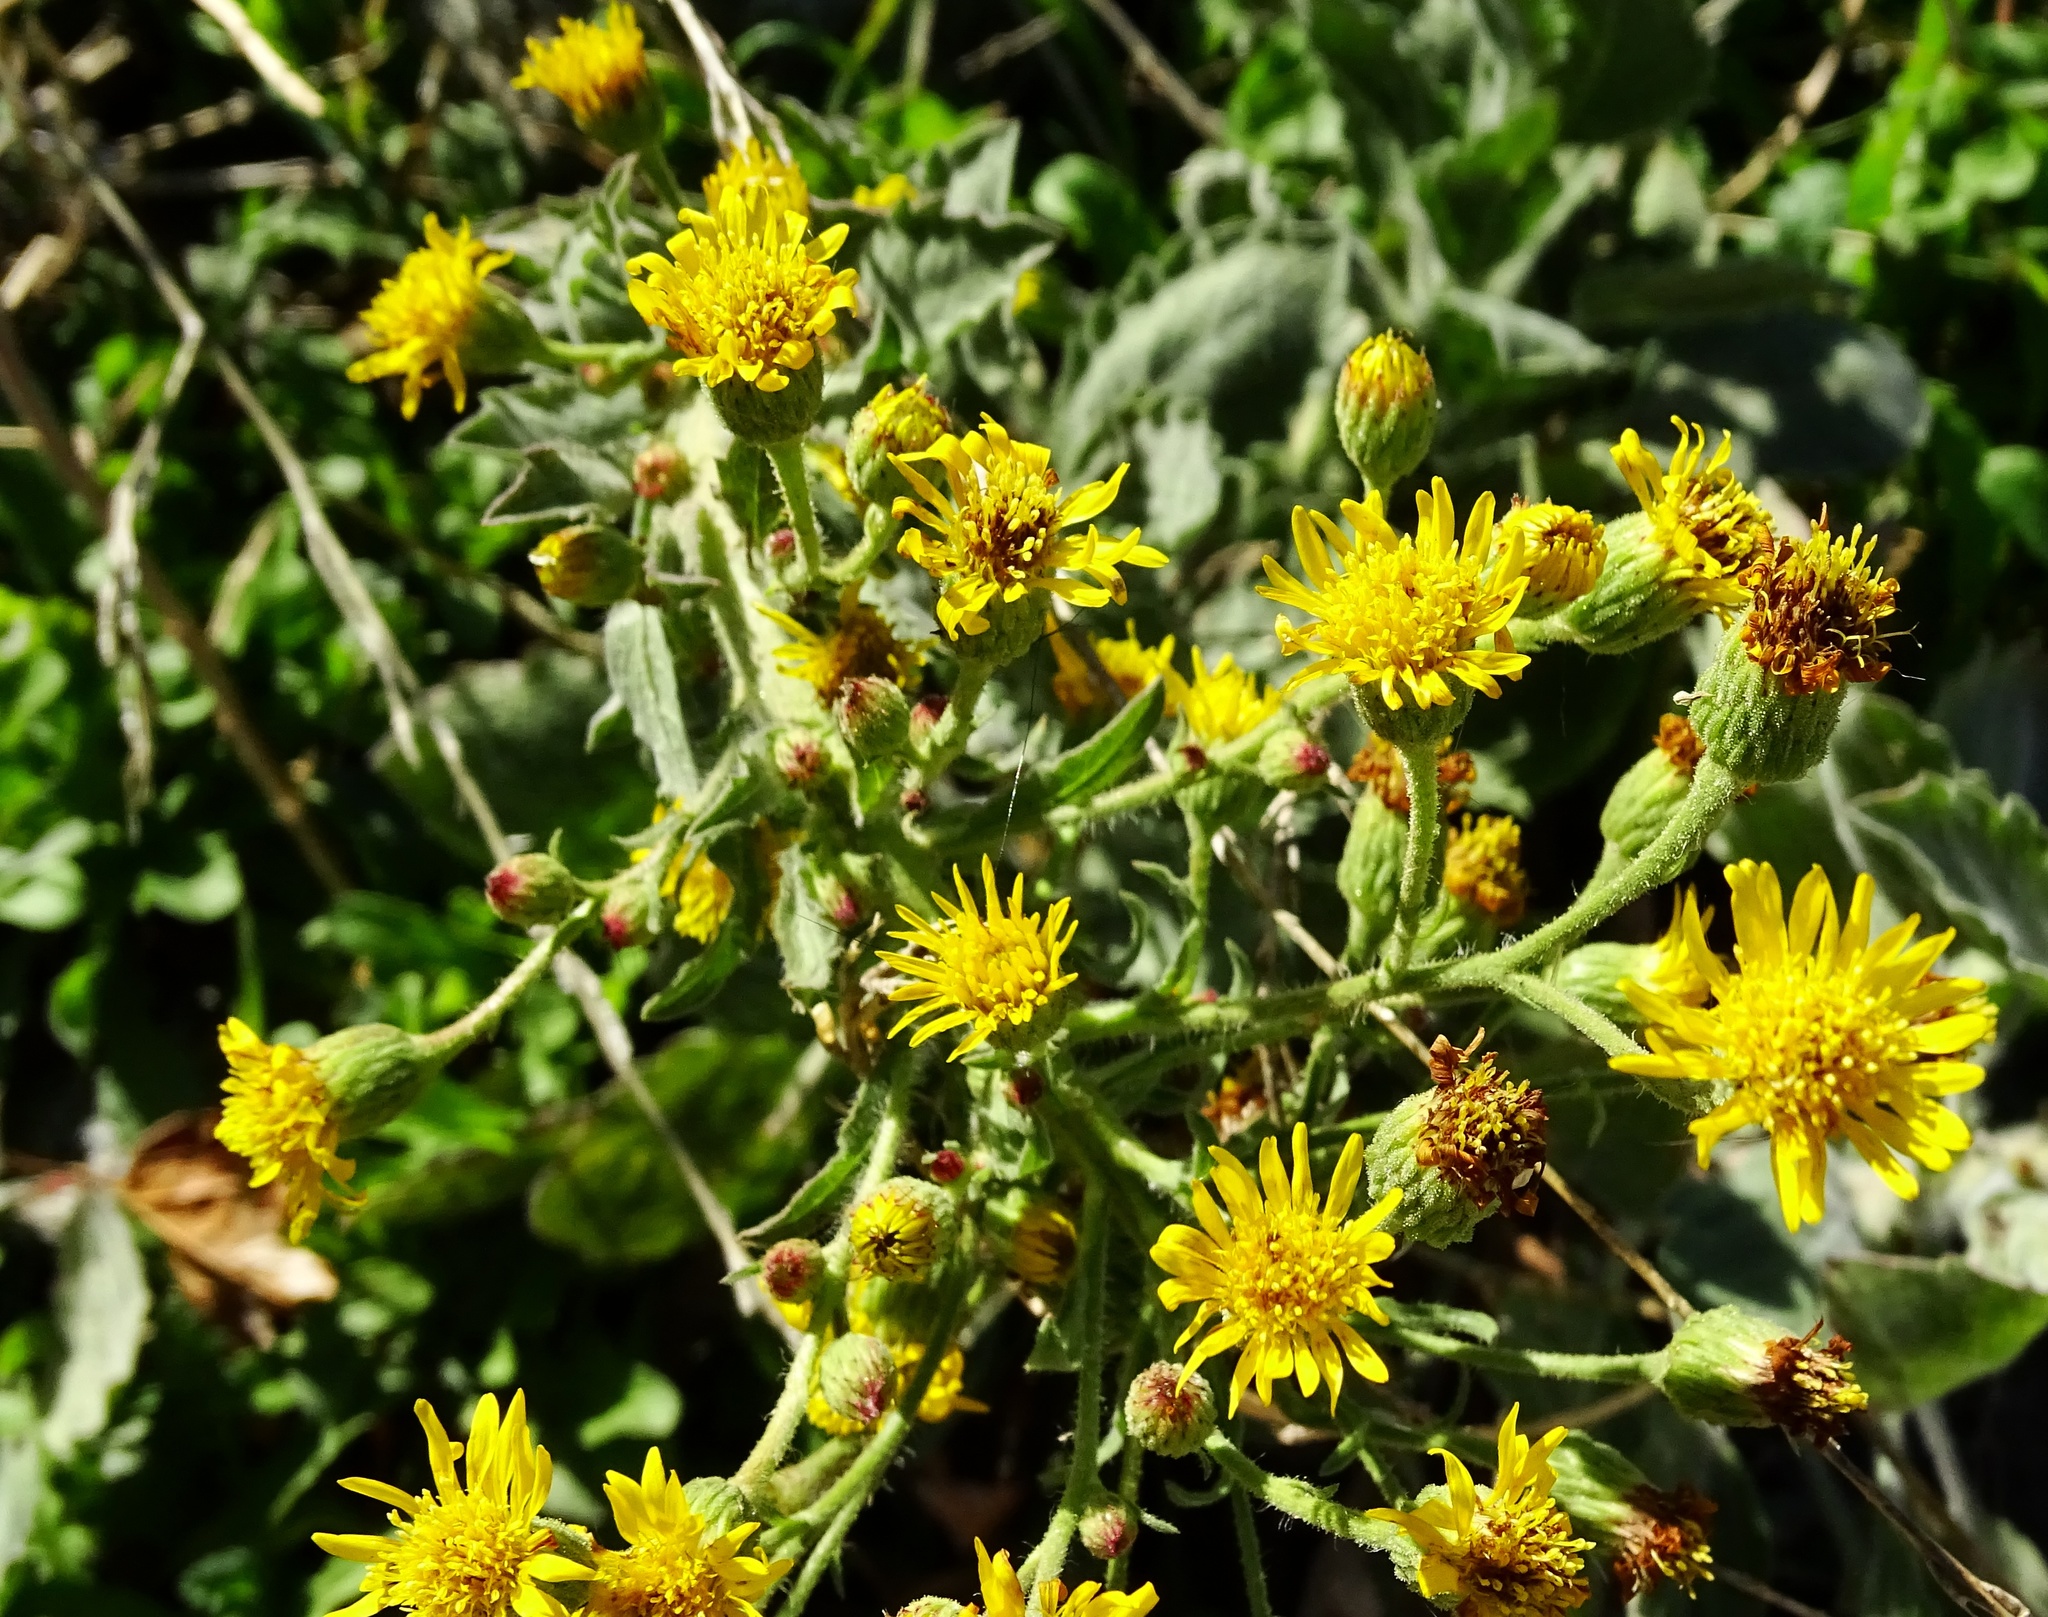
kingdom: Plantae
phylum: Tracheophyta
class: Magnoliopsida
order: Asterales
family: Asteraceae
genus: Heterotheca
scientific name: Heterotheca grandiflora
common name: Telegraphweed
